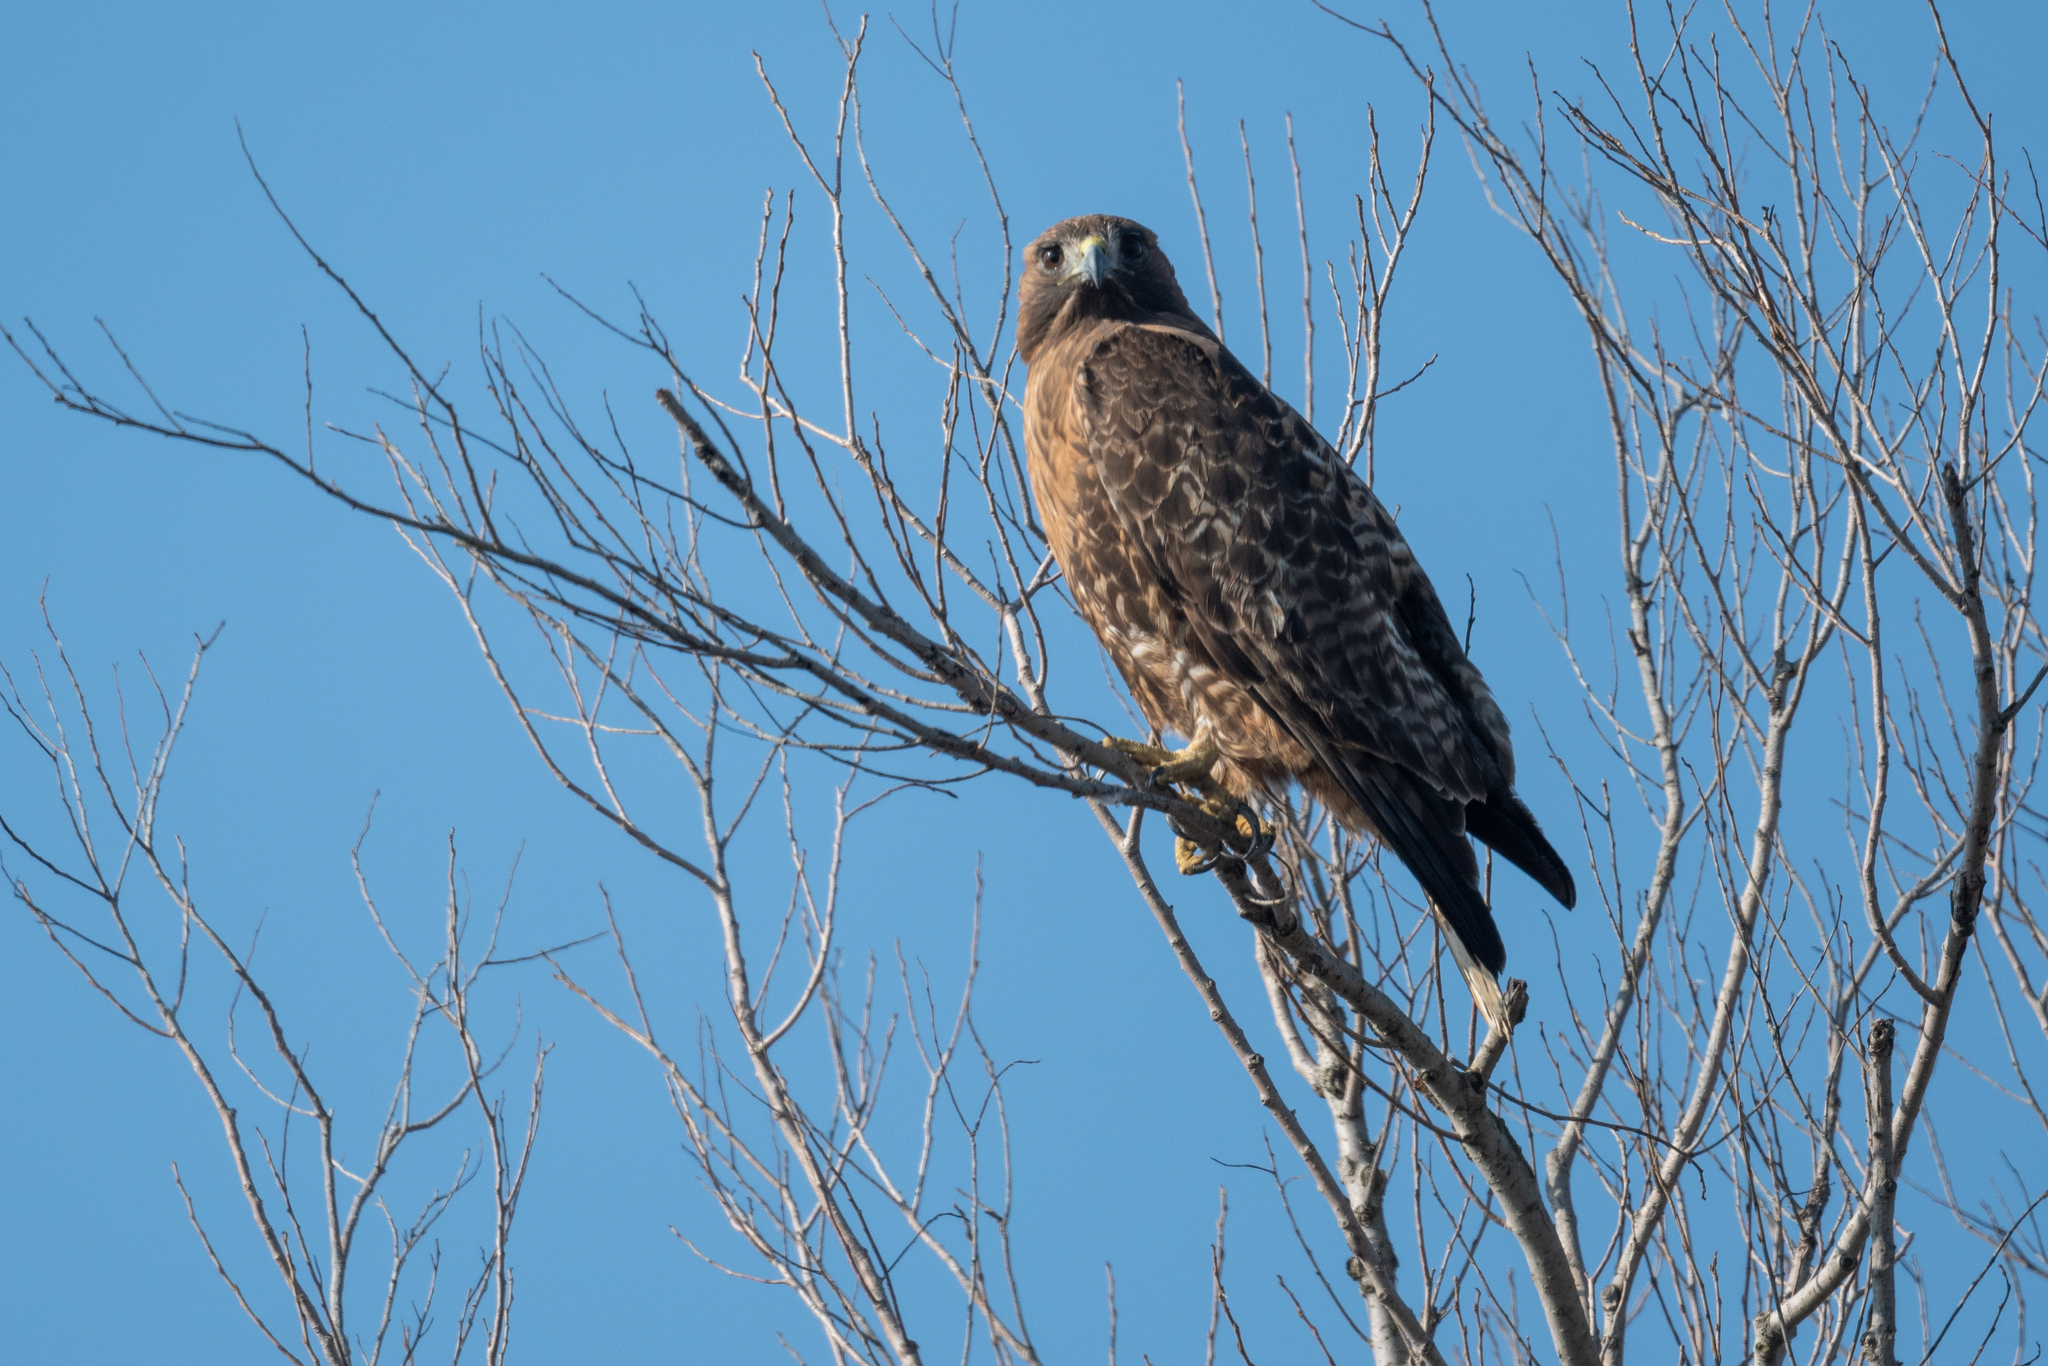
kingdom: Animalia
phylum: Chordata
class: Aves
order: Accipitriformes
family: Accipitridae
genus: Buteo
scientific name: Buteo jamaicensis
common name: Red-tailed hawk
